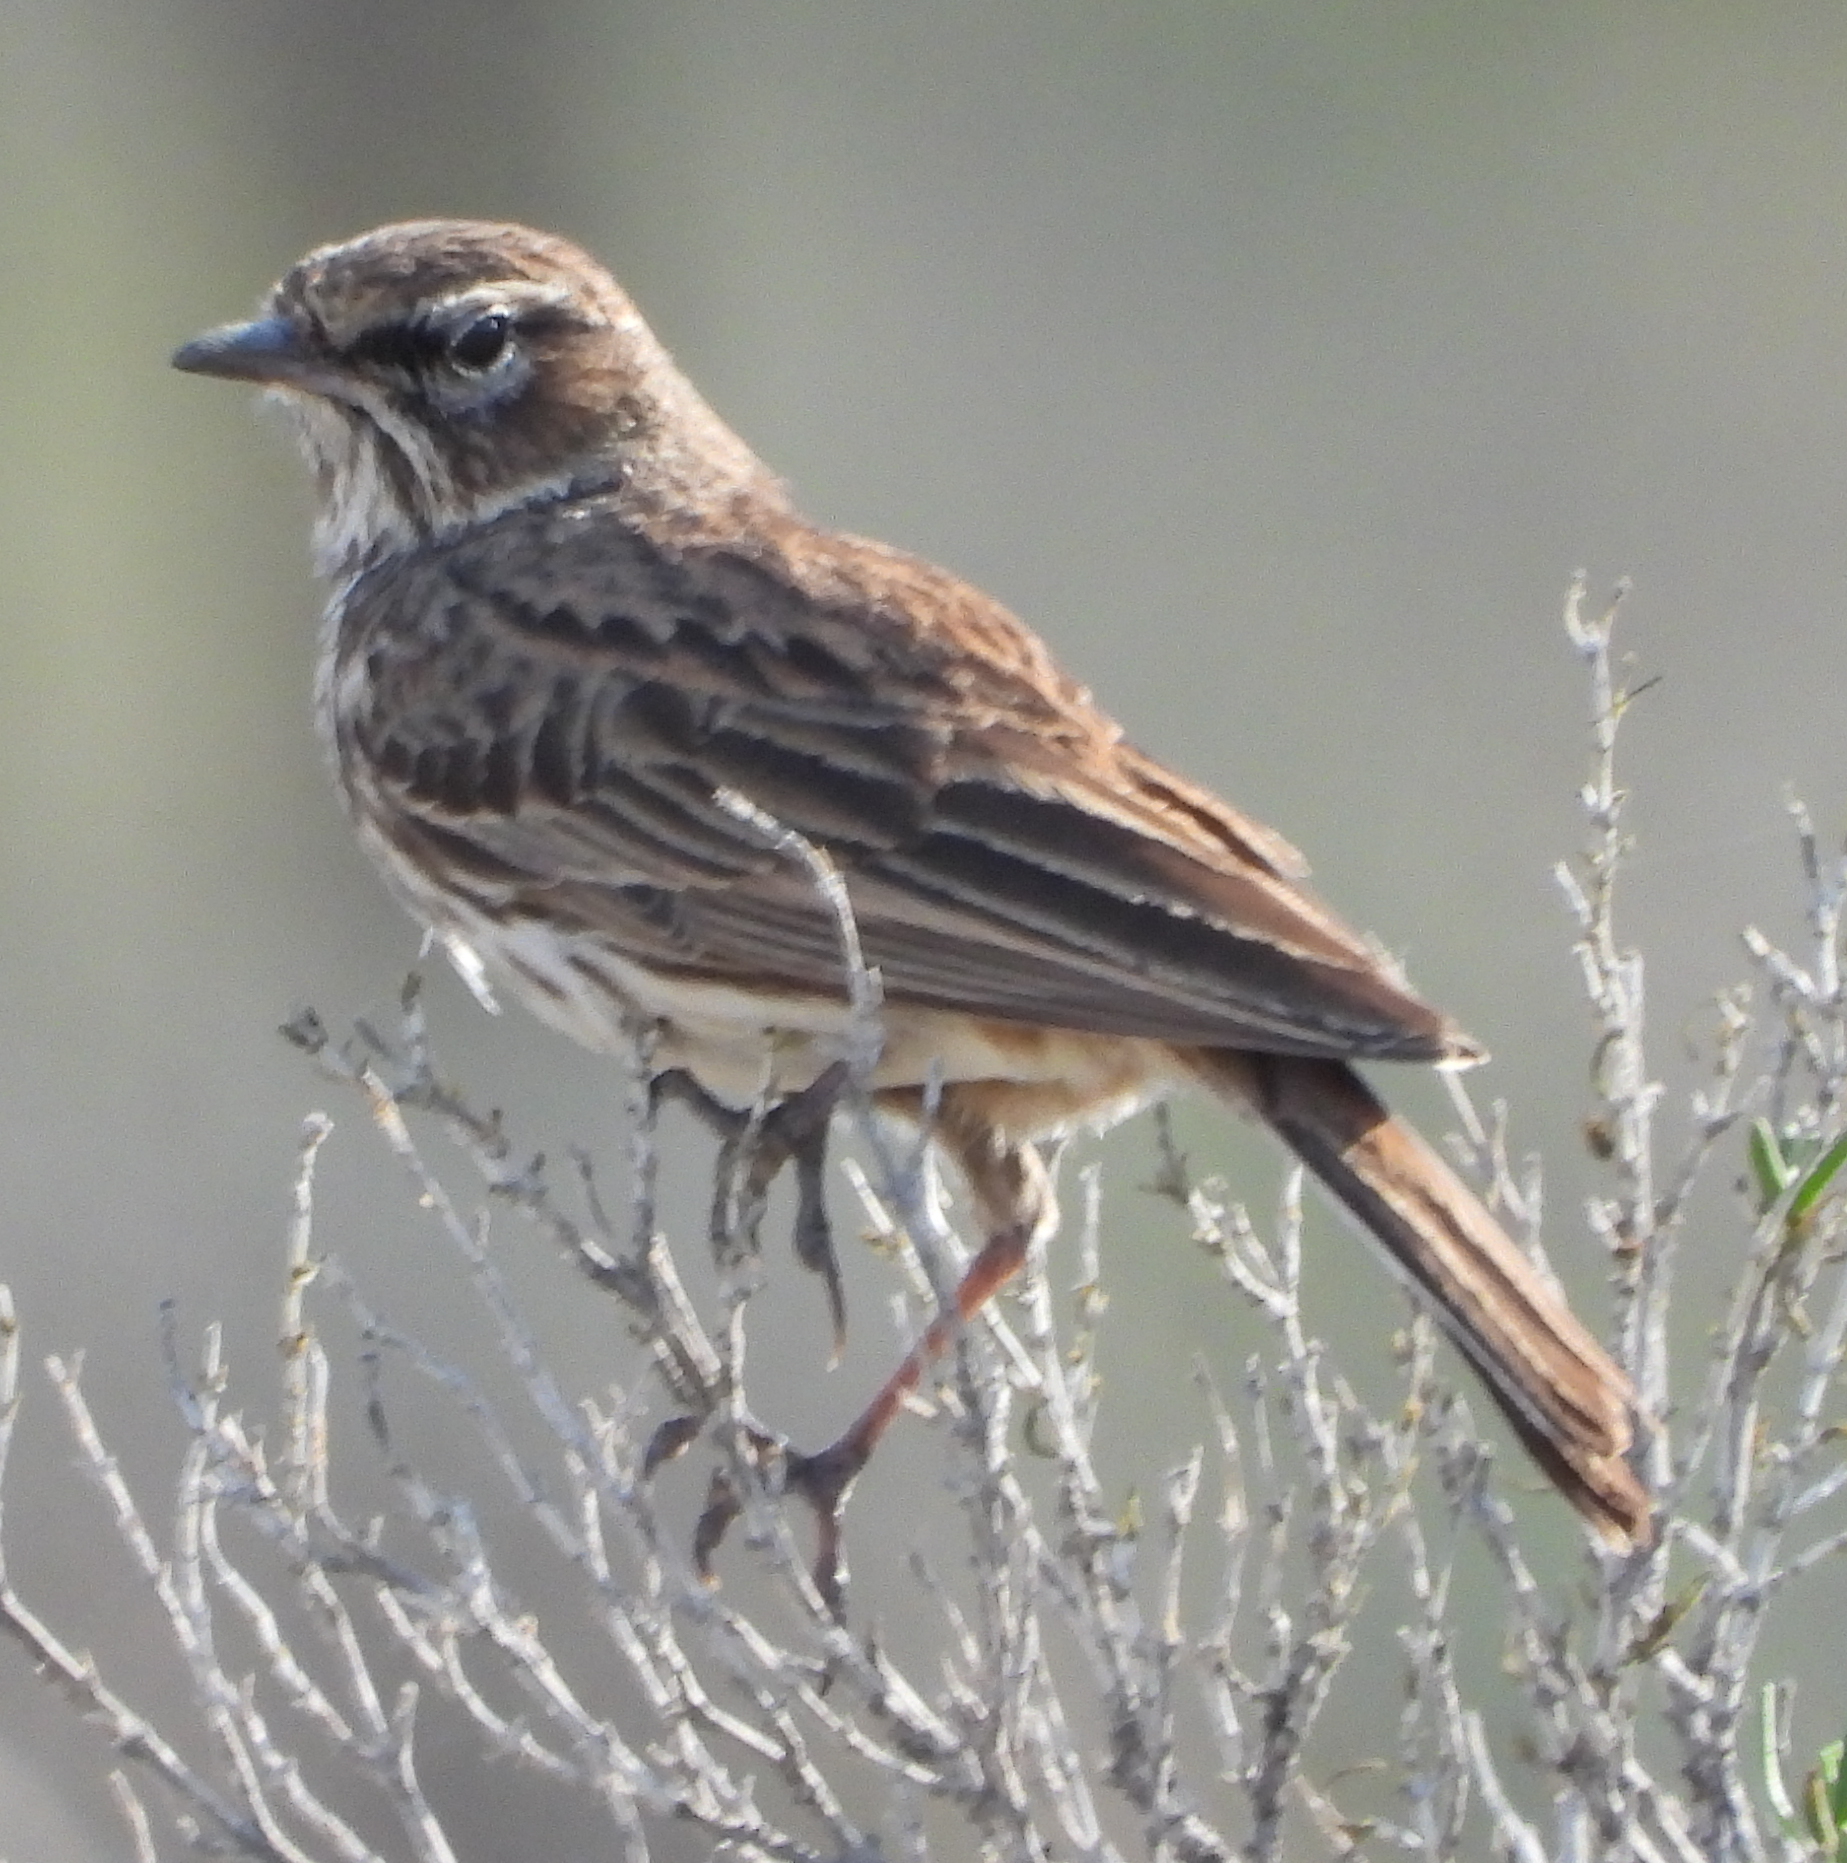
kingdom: Animalia
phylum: Chordata
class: Aves
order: Passeriformes
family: Alaudidae
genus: Calendulauda
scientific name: Calendulauda albescens
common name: Karoo lark
